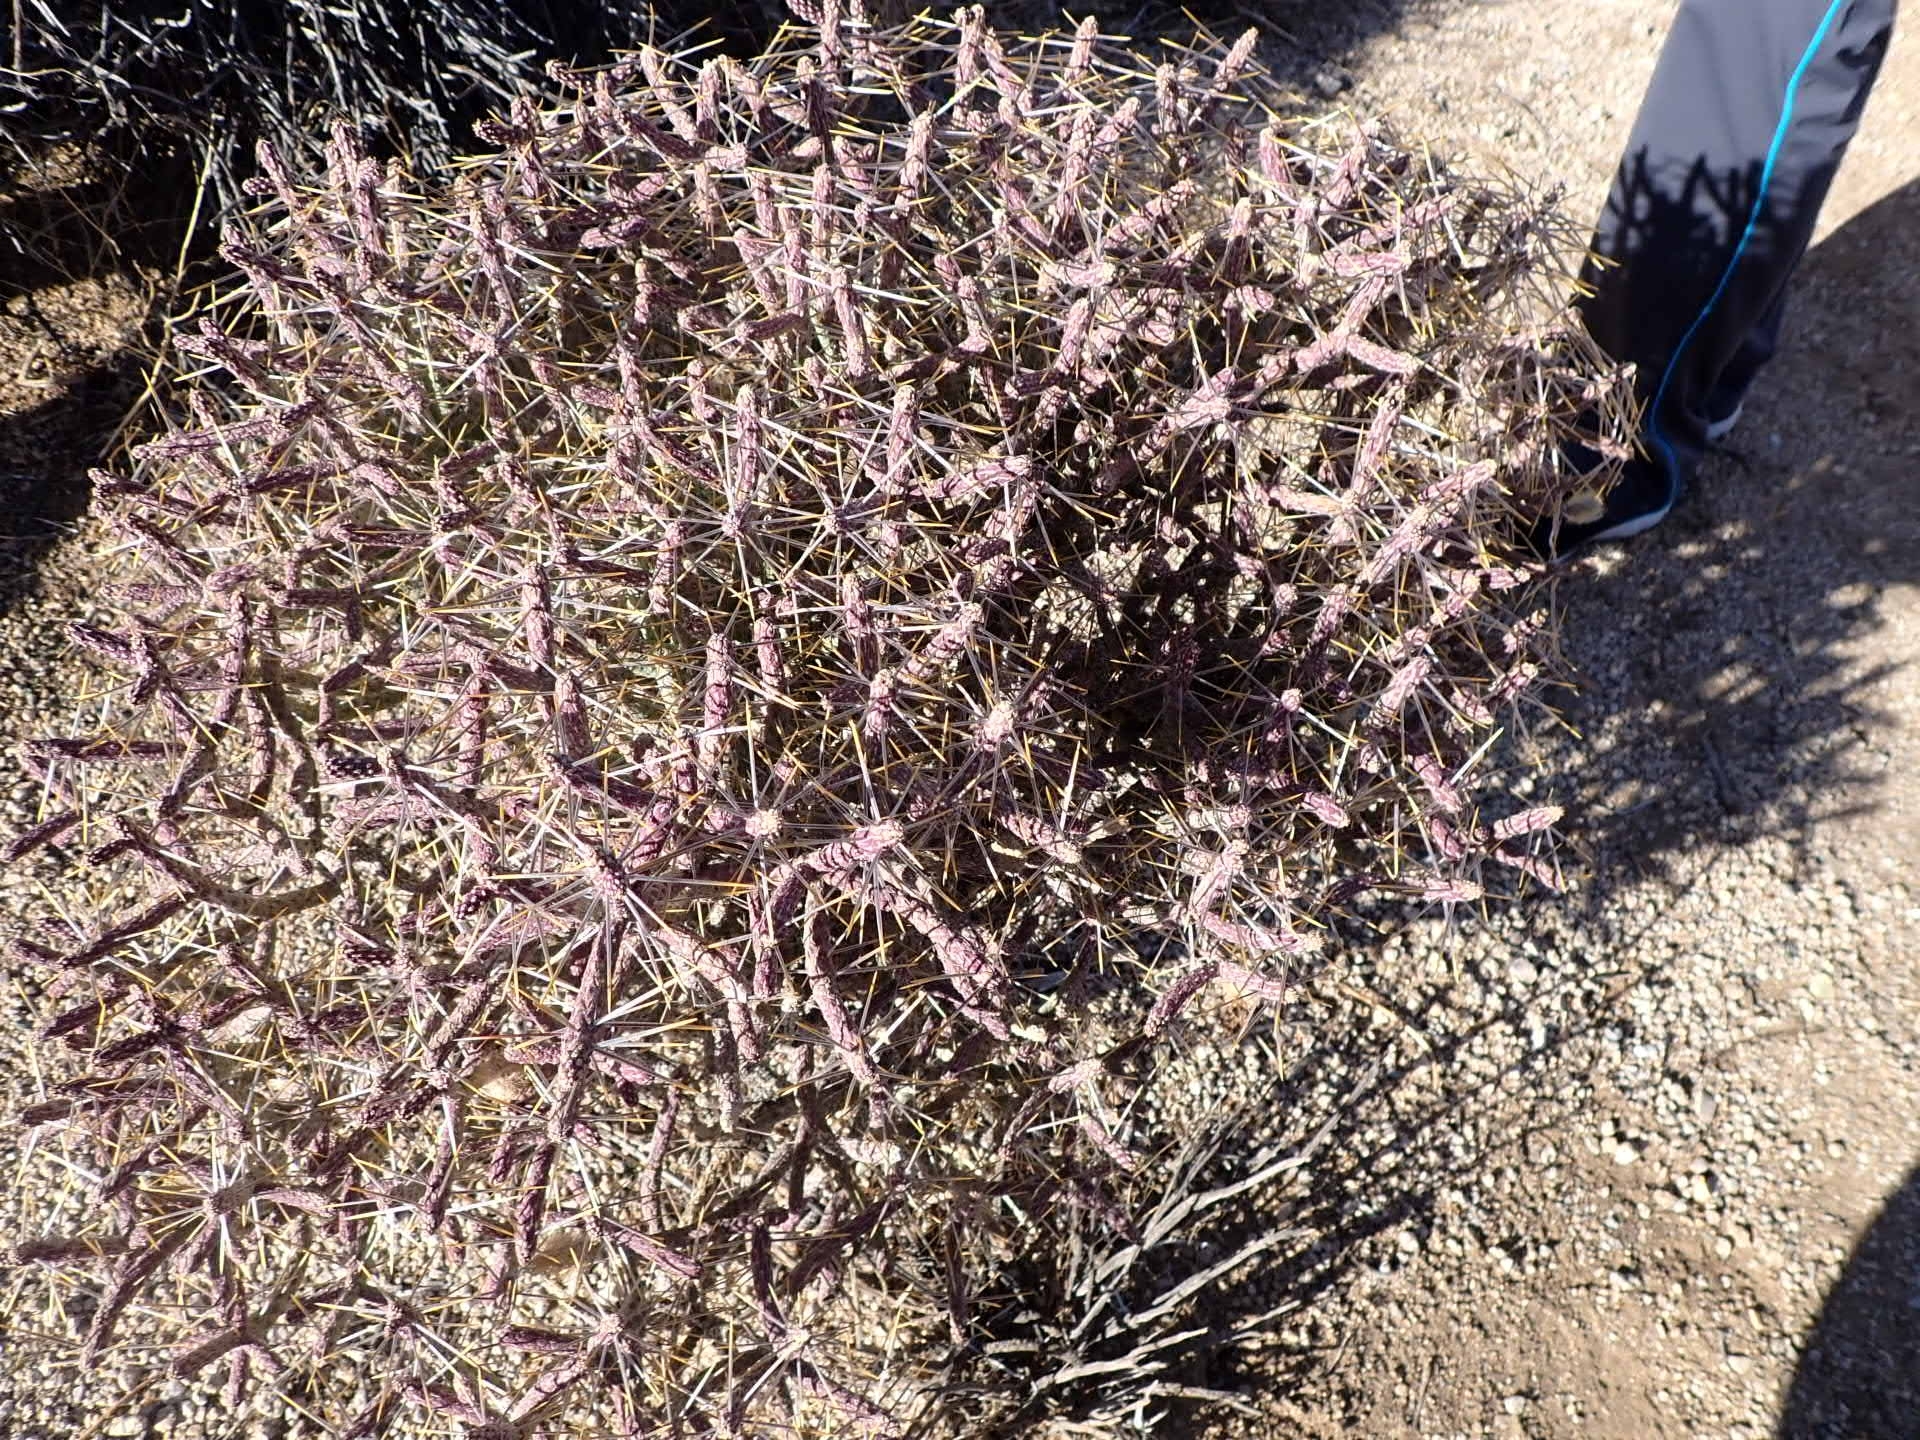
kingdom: Plantae
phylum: Tracheophyta
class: Magnoliopsida
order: Caryophyllales
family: Cactaceae
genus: Cylindropuntia
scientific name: Cylindropuntia ramosissima
